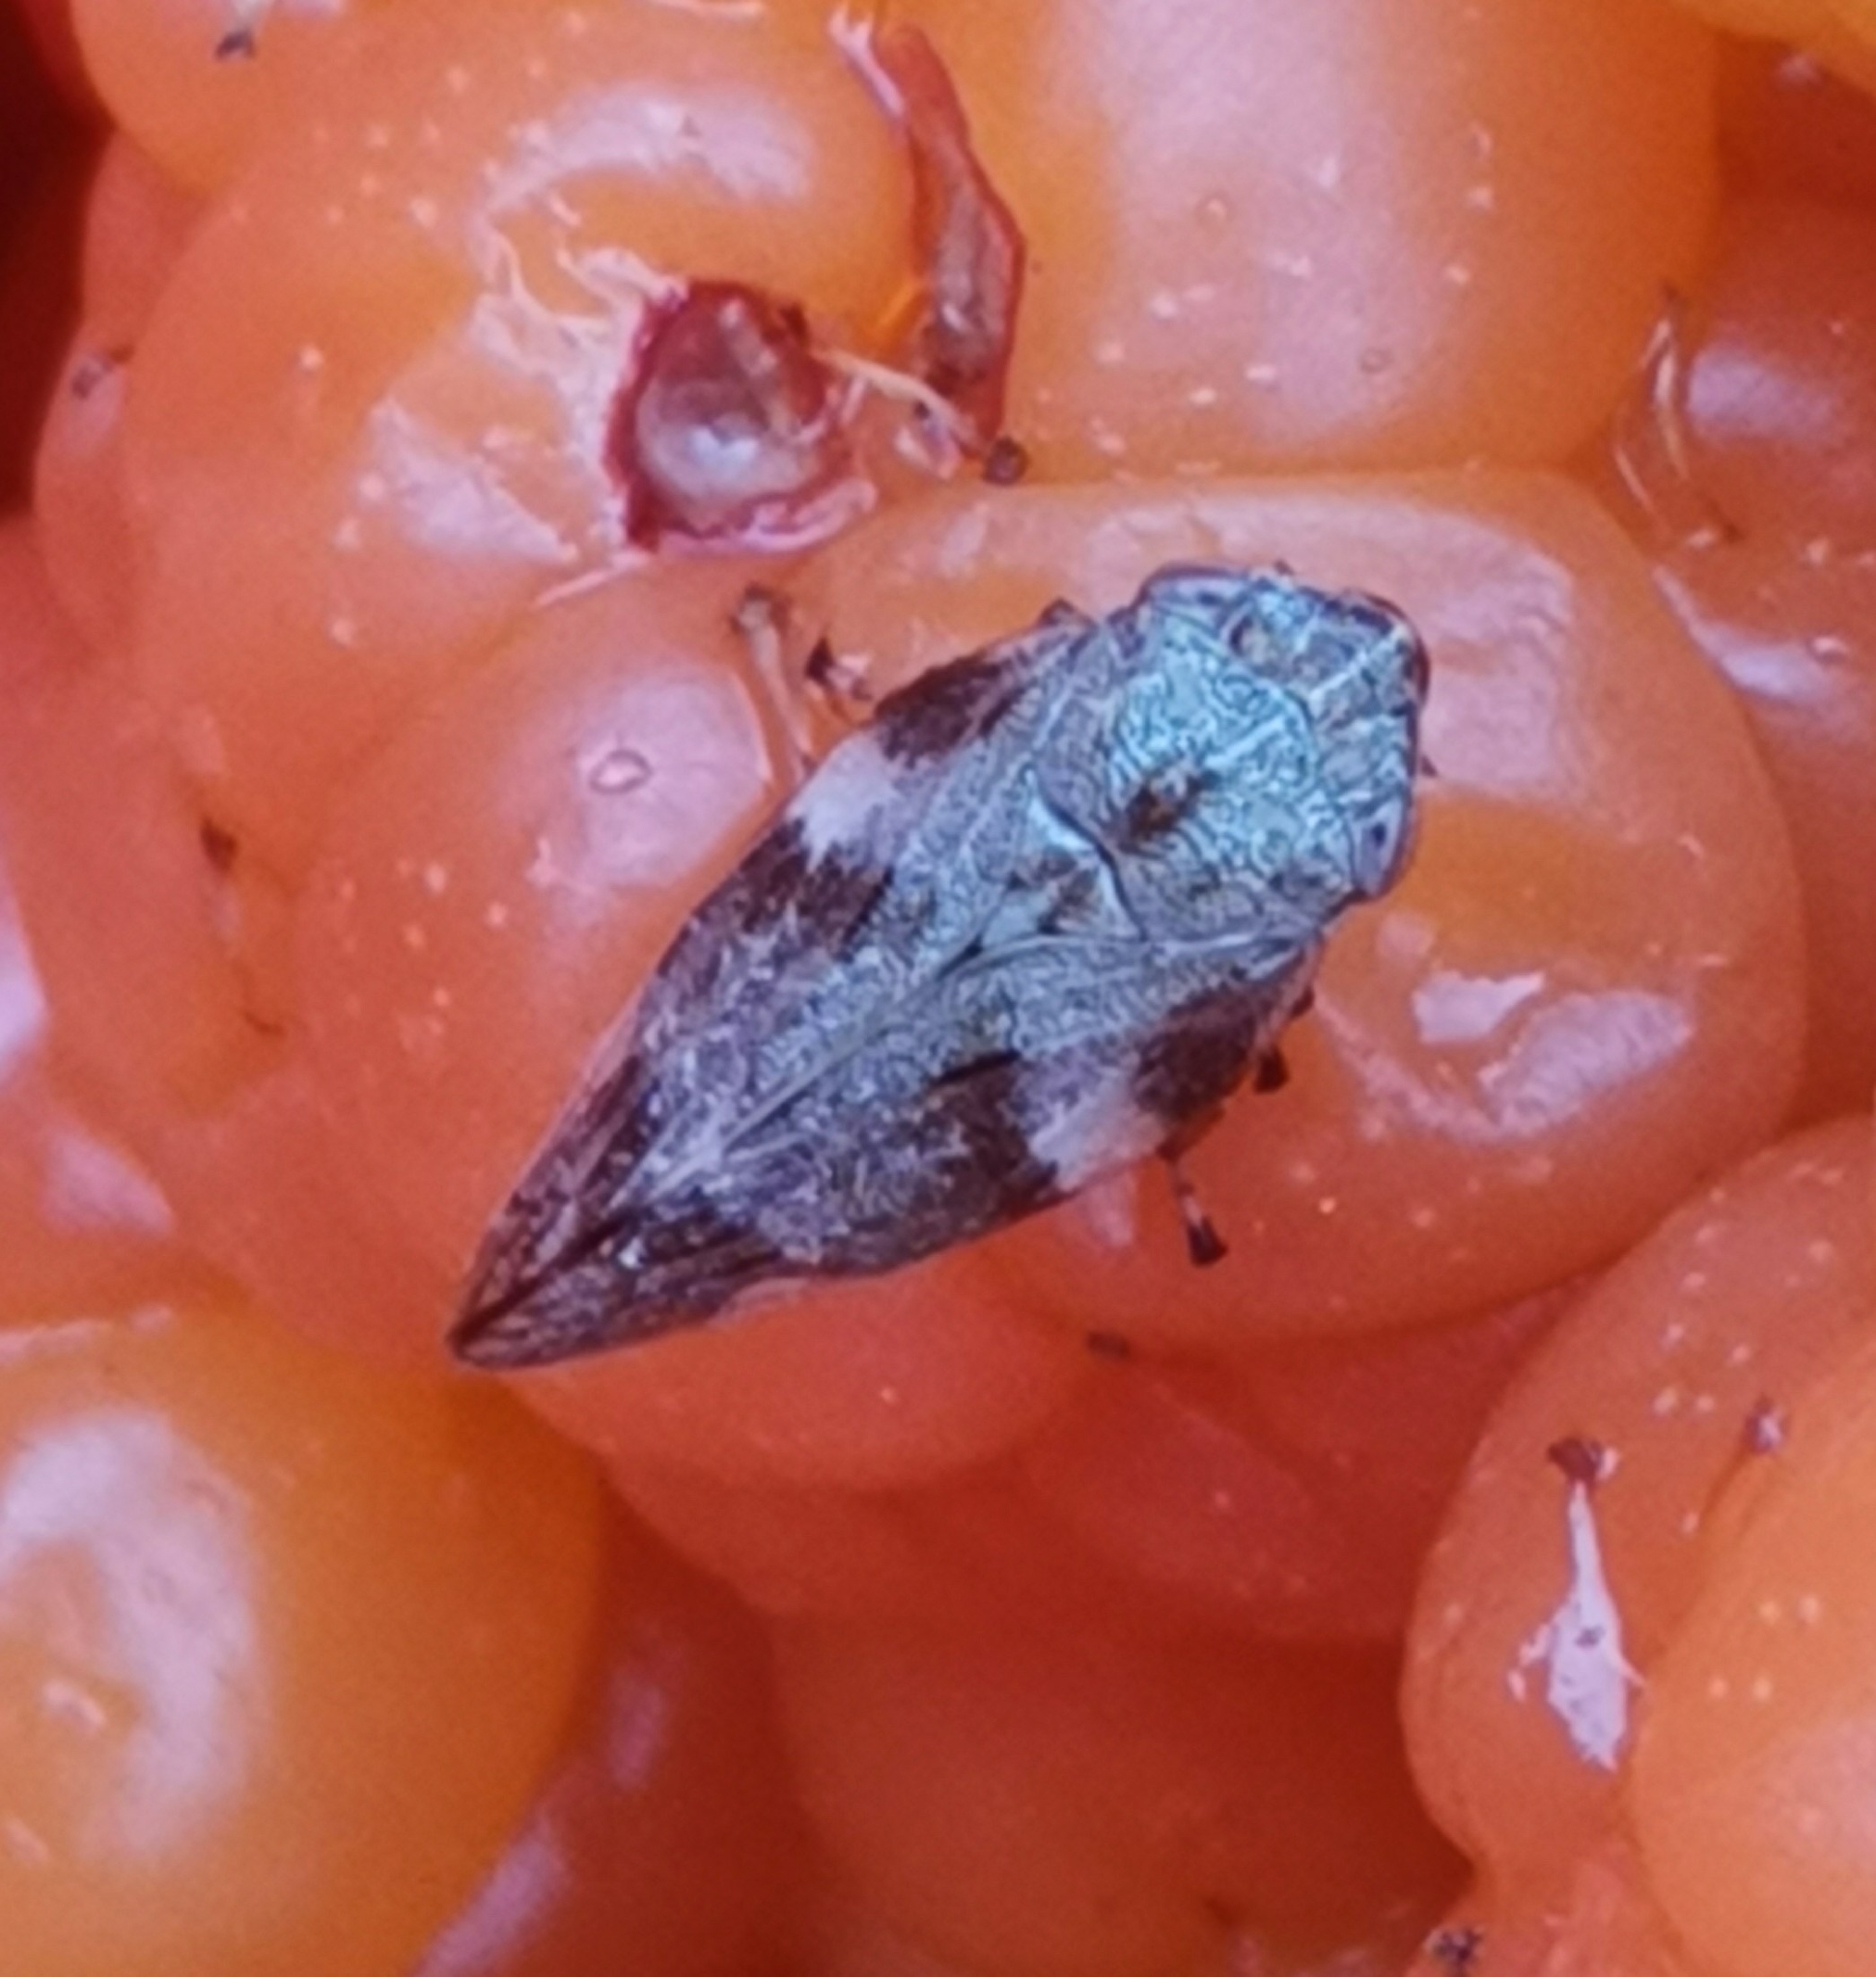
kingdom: Animalia
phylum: Arthropoda
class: Insecta
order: Hemiptera
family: Aphrophoridae
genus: Aphrophora
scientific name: Aphrophora alni
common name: European alder spittlebug
